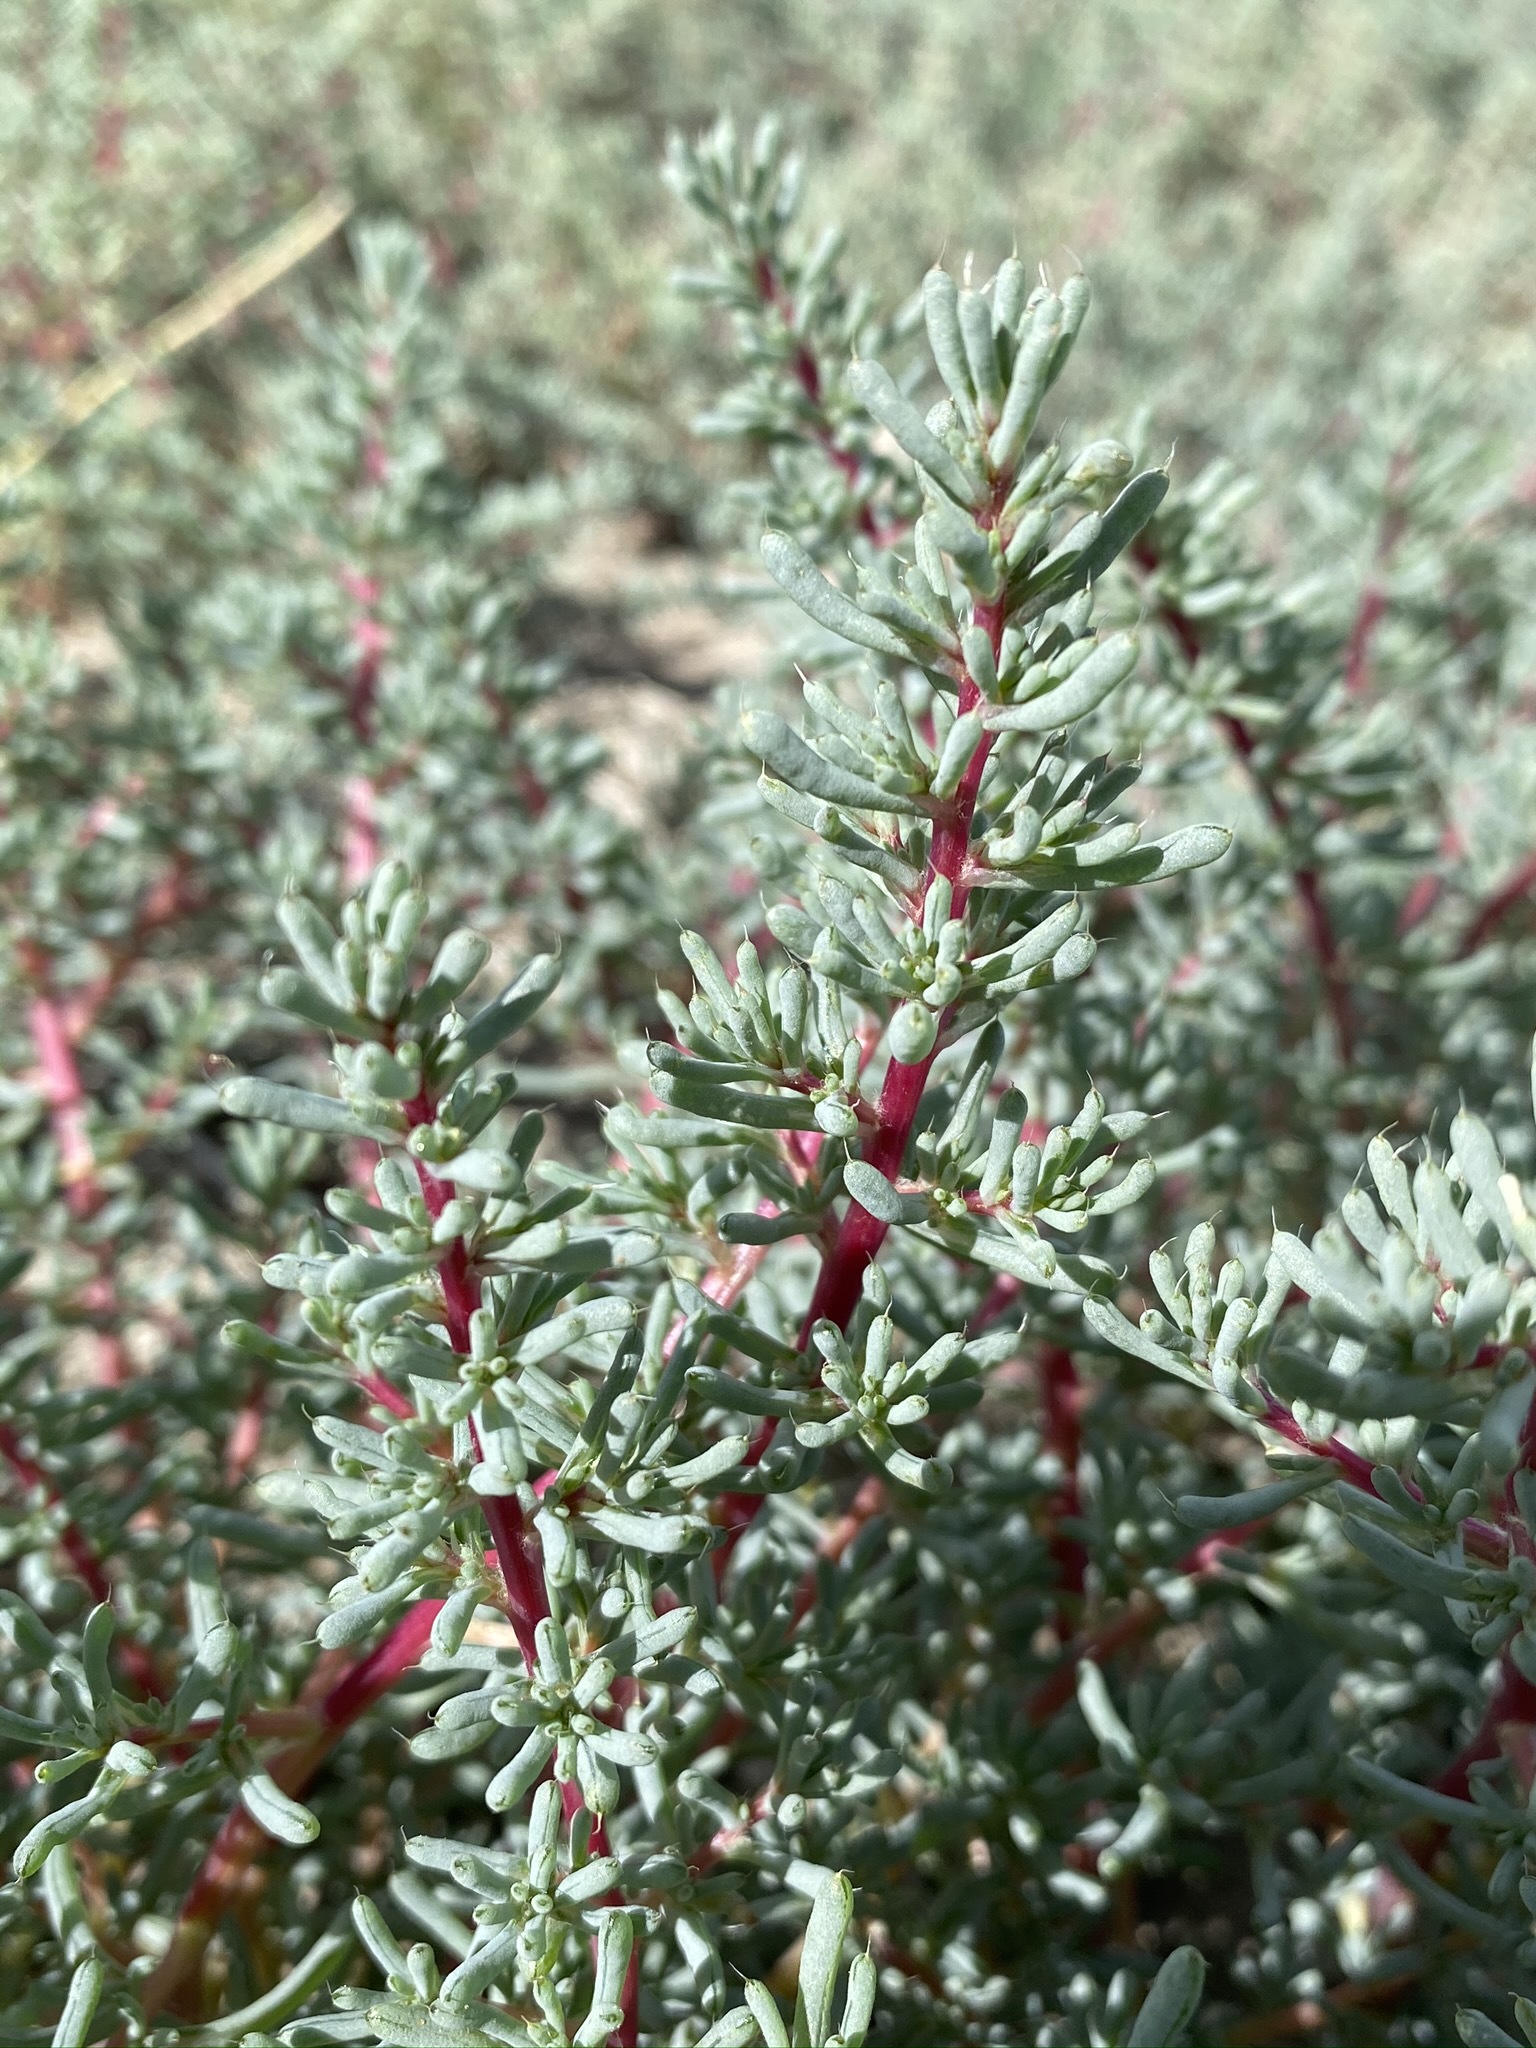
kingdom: Plantae
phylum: Tracheophyta
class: Magnoliopsida
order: Caryophyllales
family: Amaranthaceae
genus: Halogeton
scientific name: Halogeton glomeratus
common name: Saltlover
